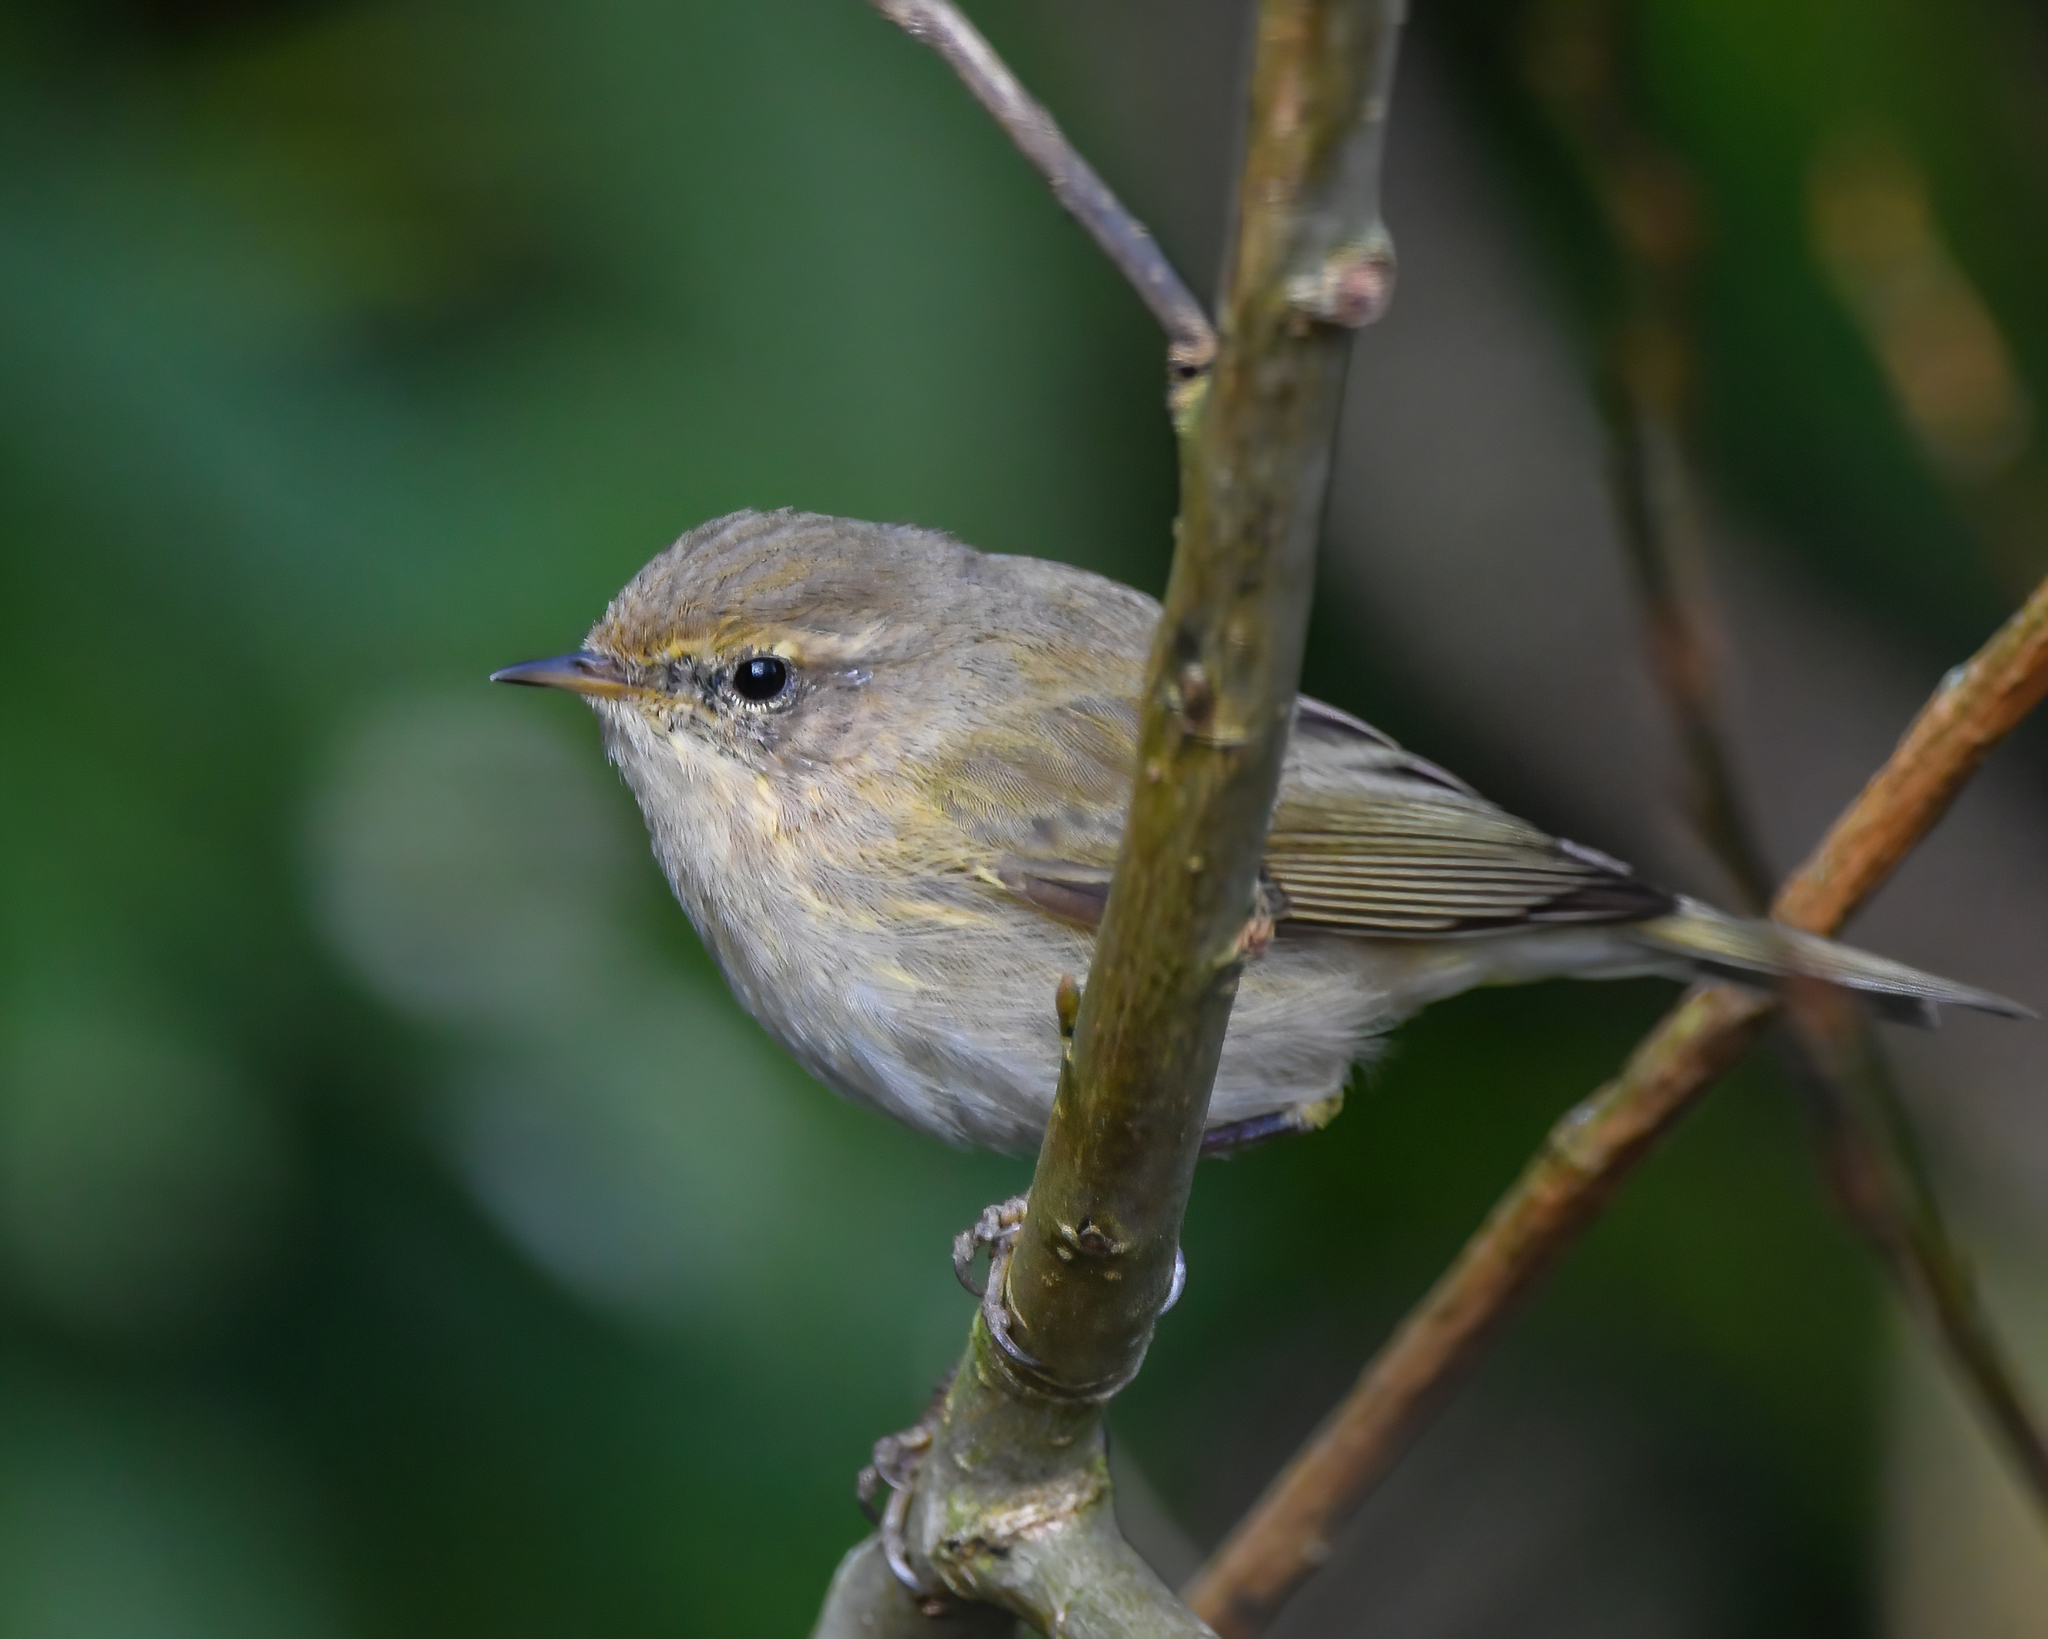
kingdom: Animalia
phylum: Chordata
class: Aves
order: Passeriformes
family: Phylloscopidae
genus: Phylloscopus
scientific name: Phylloscopus collybita
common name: Common chiffchaff
